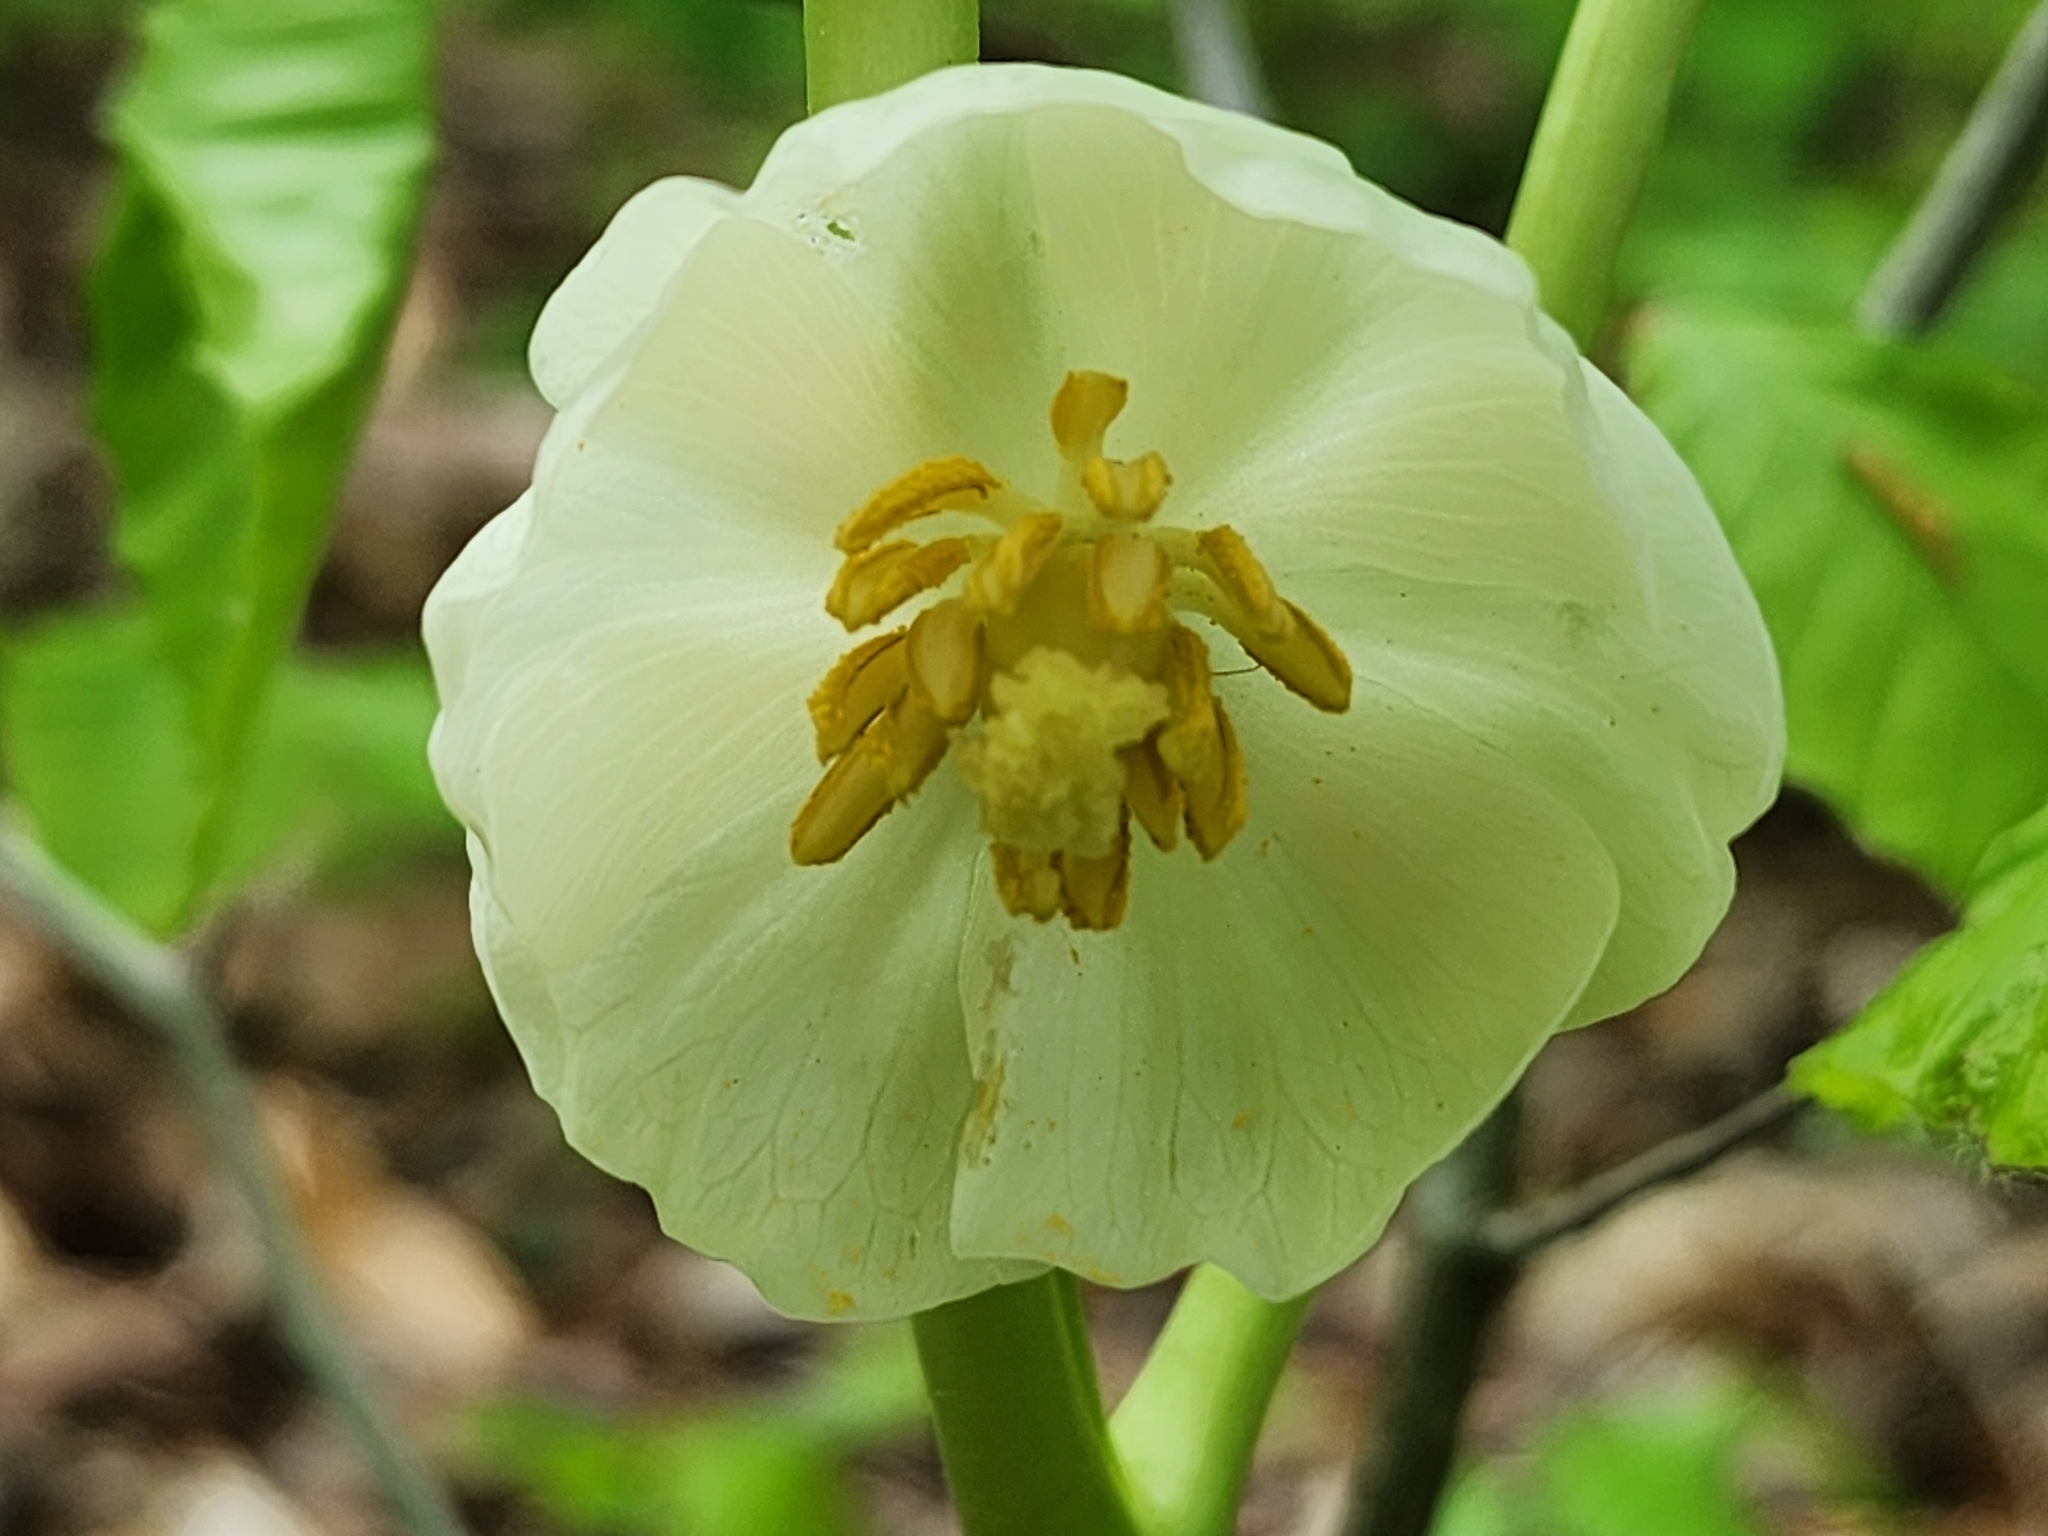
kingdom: Plantae
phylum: Tracheophyta
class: Magnoliopsida
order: Ranunculales
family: Berberidaceae
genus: Podophyllum
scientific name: Podophyllum peltatum
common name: Wild mandrake
